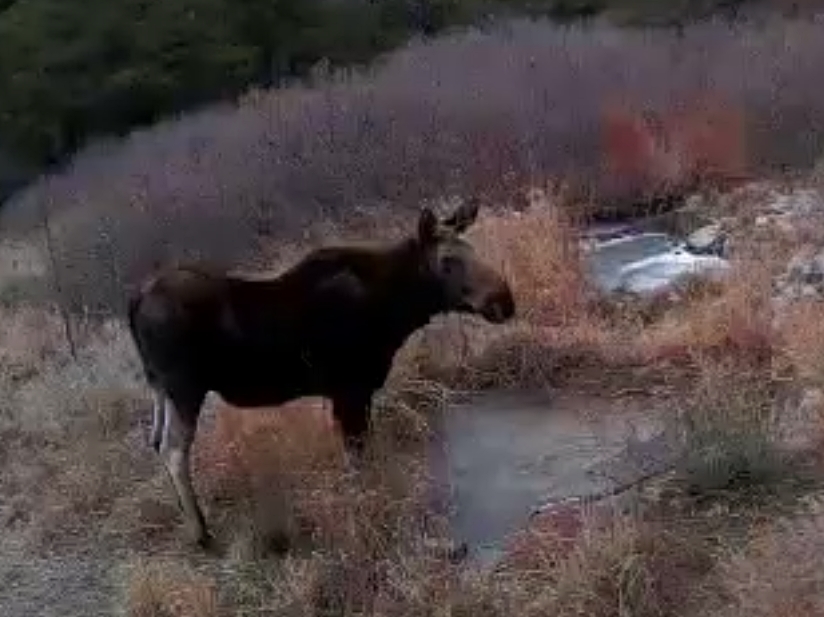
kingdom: Animalia
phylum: Chordata
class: Mammalia
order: Artiodactyla
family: Cervidae
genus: Alces
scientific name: Alces alces
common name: Moose
